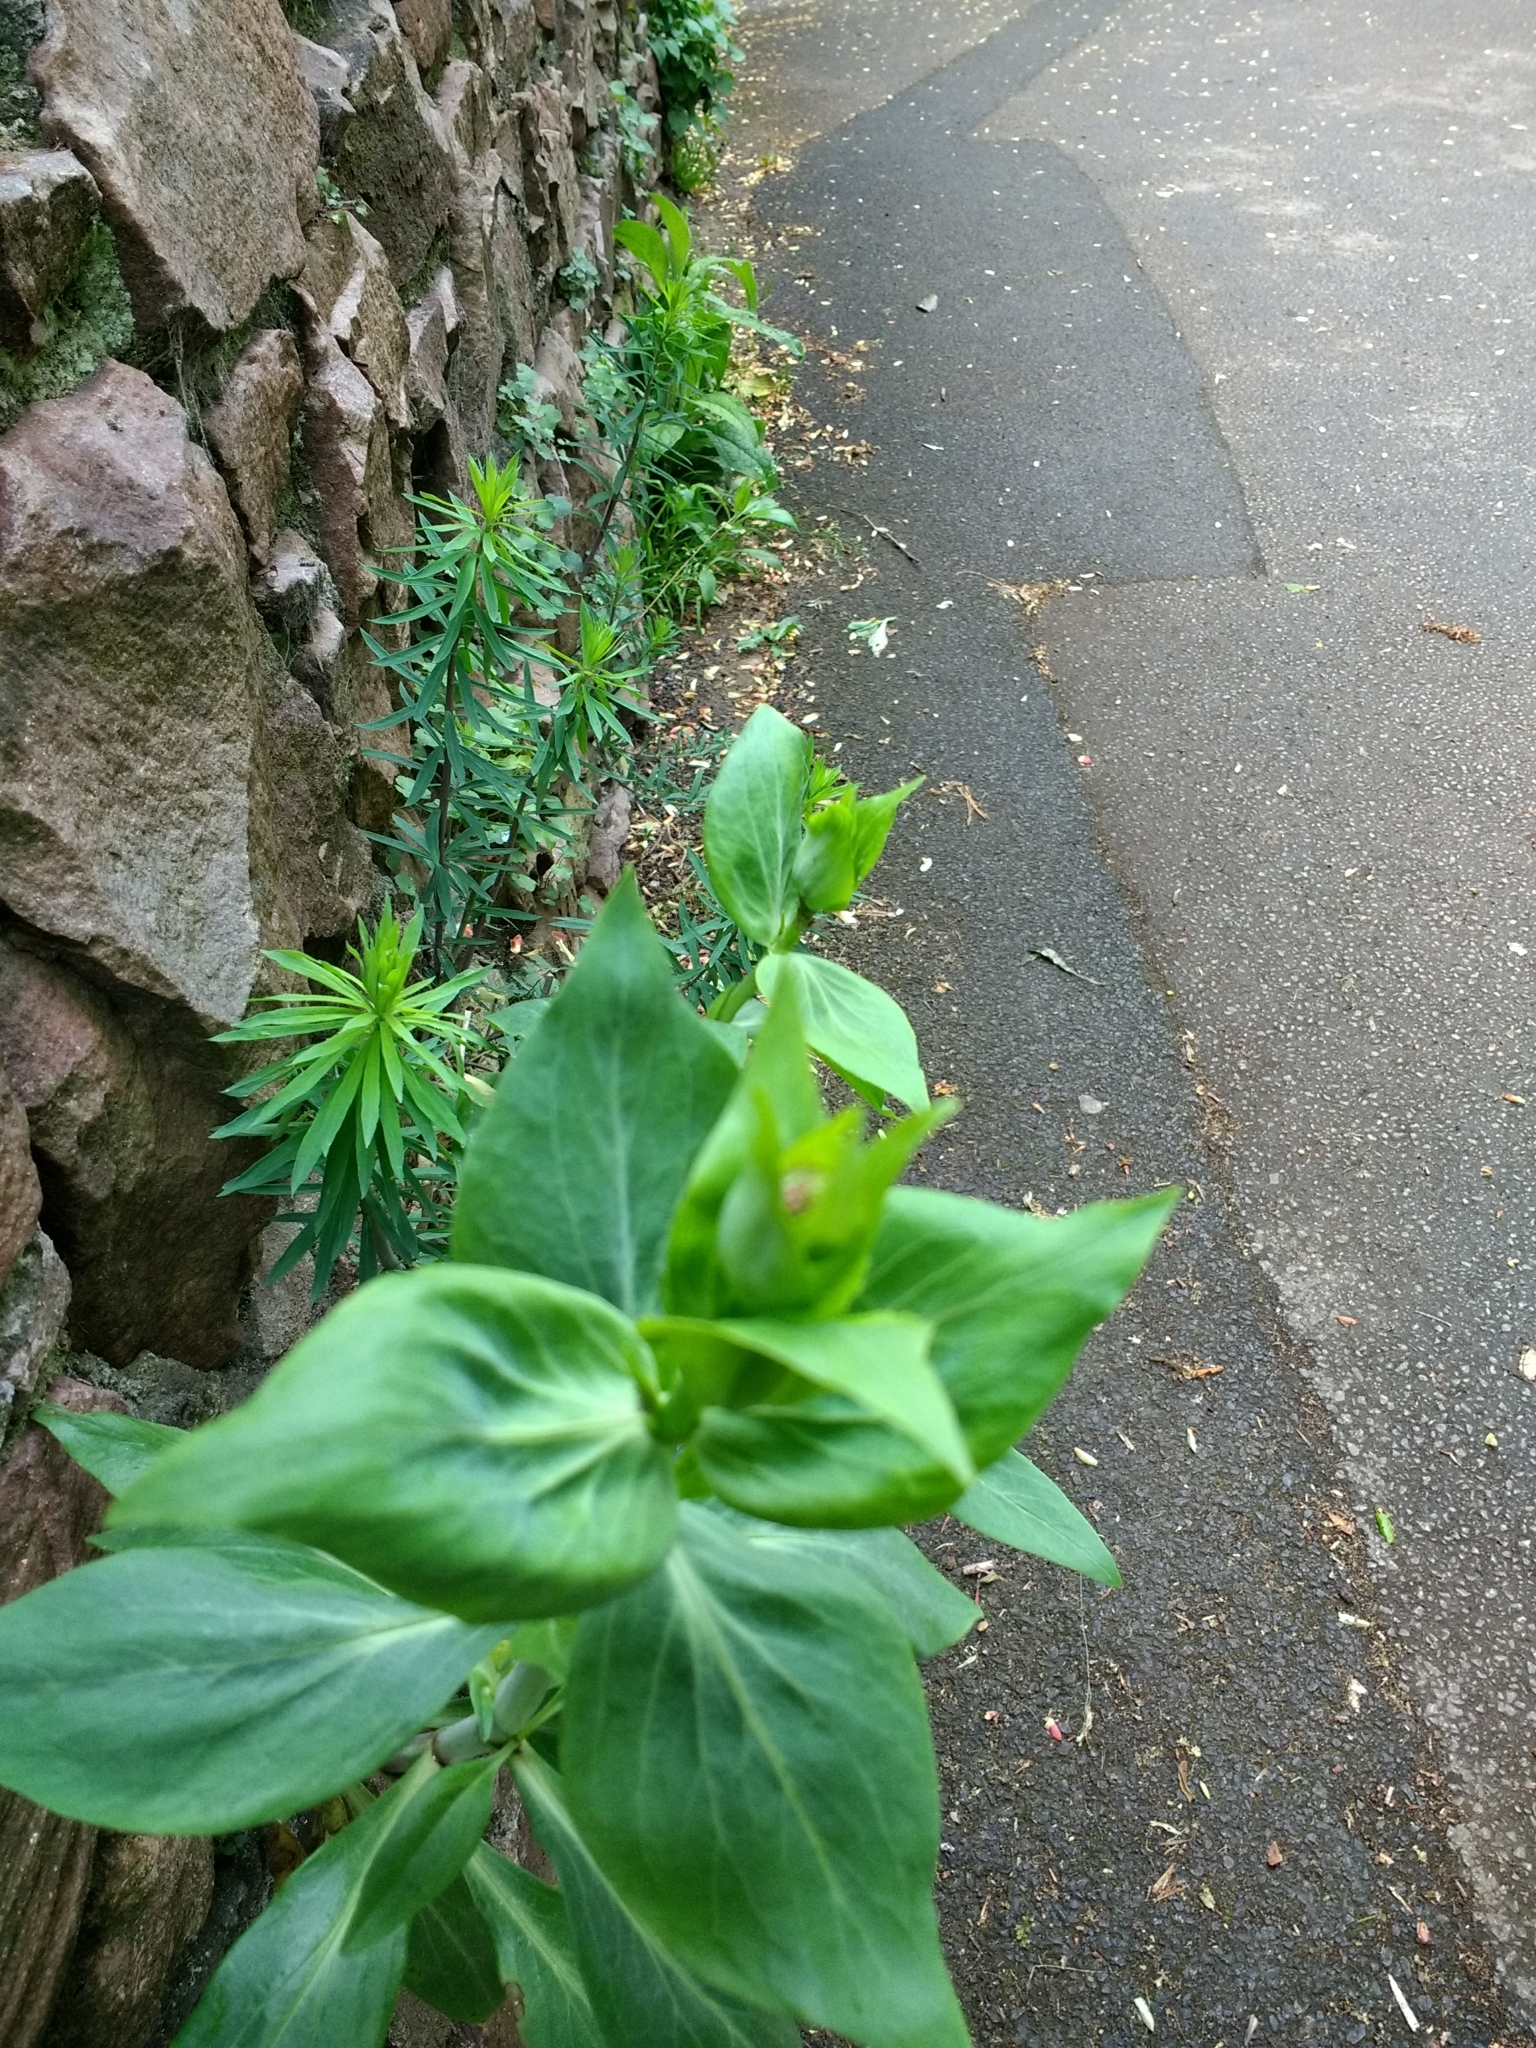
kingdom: Plantae
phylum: Tracheophyta
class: Magnoliopsida
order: Dipsacales
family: Caprifoliaceae
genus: Centranthus
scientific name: Centranthus ruber
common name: Red valerian
